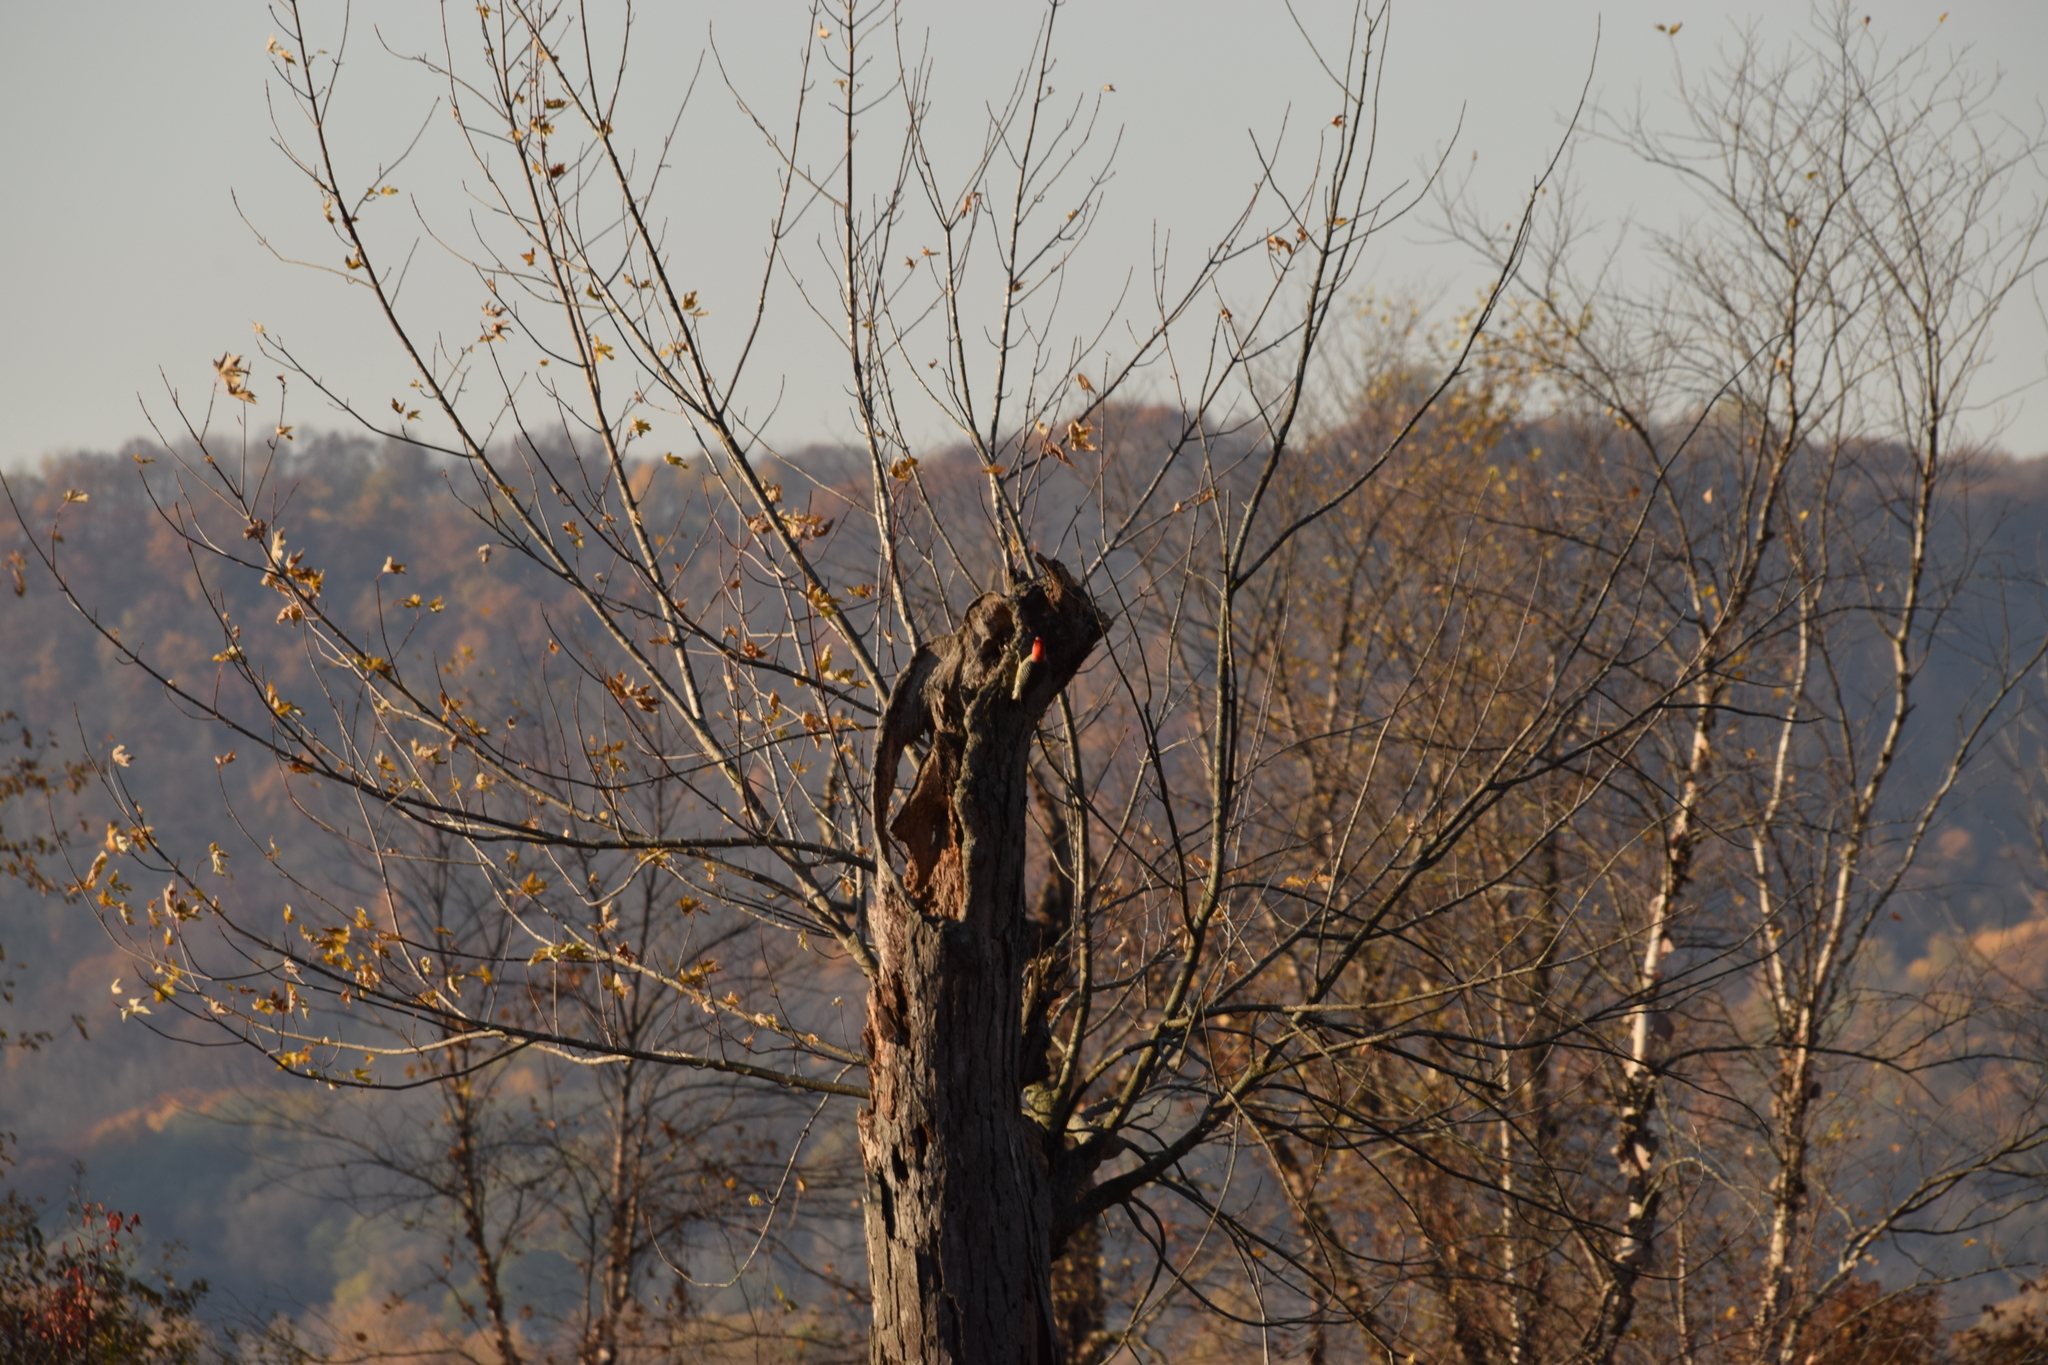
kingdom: Animalia
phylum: Chordata
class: Aves
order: Piciformes
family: Picidae
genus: Melanerpes
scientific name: Melanerpes carolinus
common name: Red-bellied woodpecker
